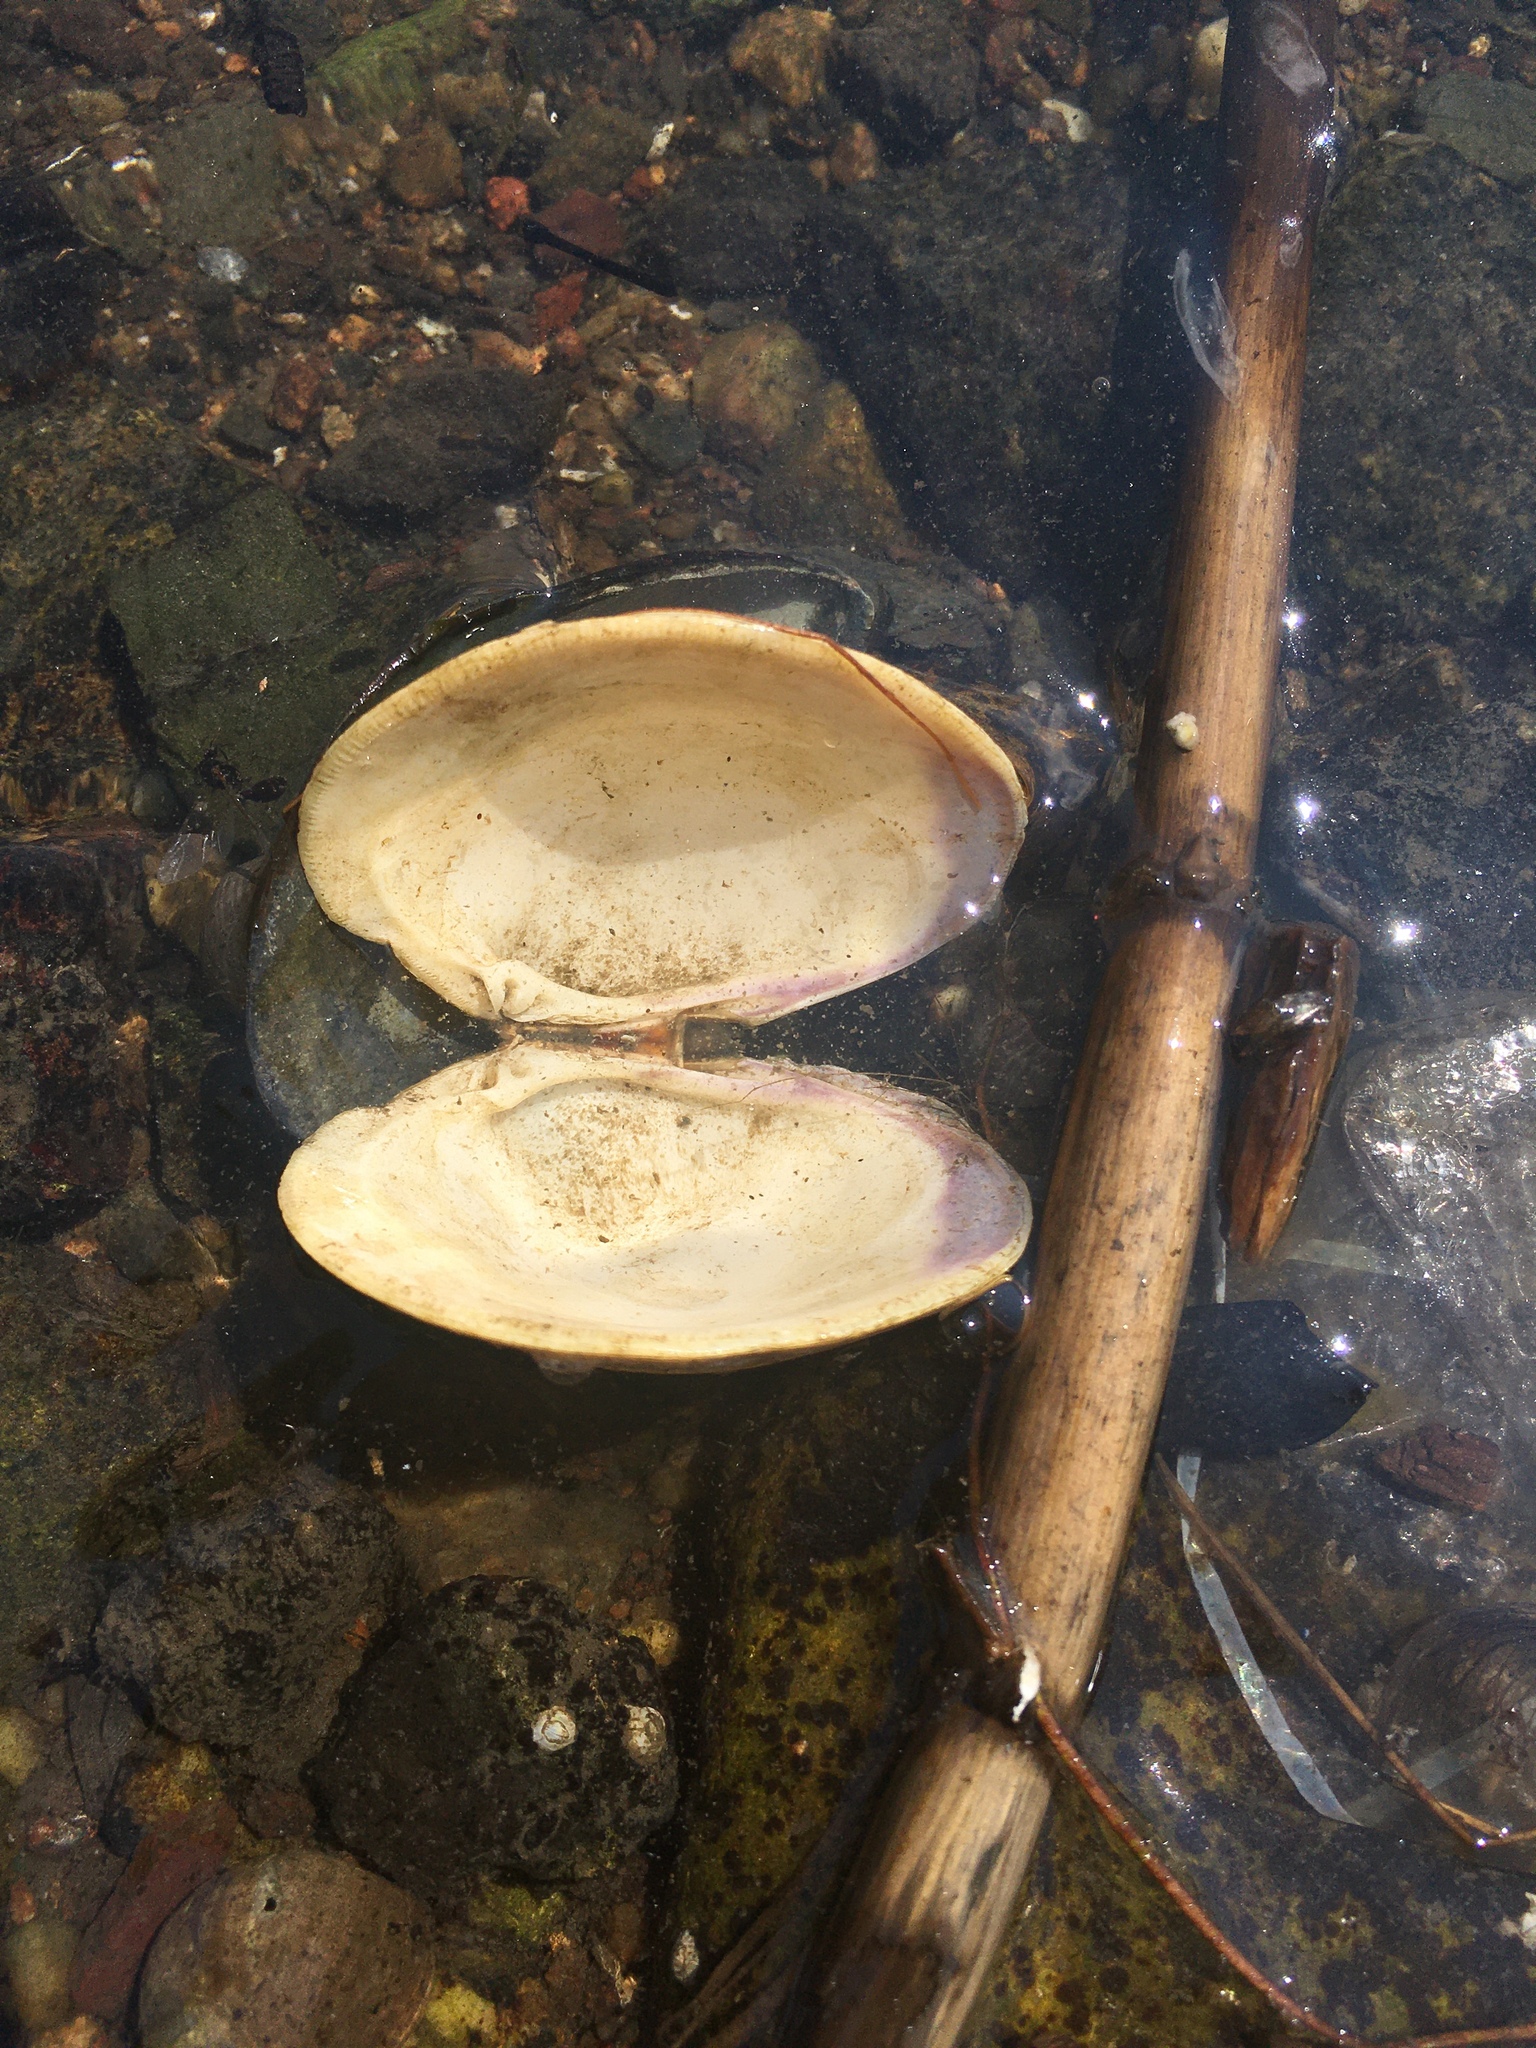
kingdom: Animalia
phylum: Mollusca
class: Bivalvia
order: Venerida
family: Veneridae
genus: Mercenaria
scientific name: Mercenaria mercenaria
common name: American hard-shelled clam
